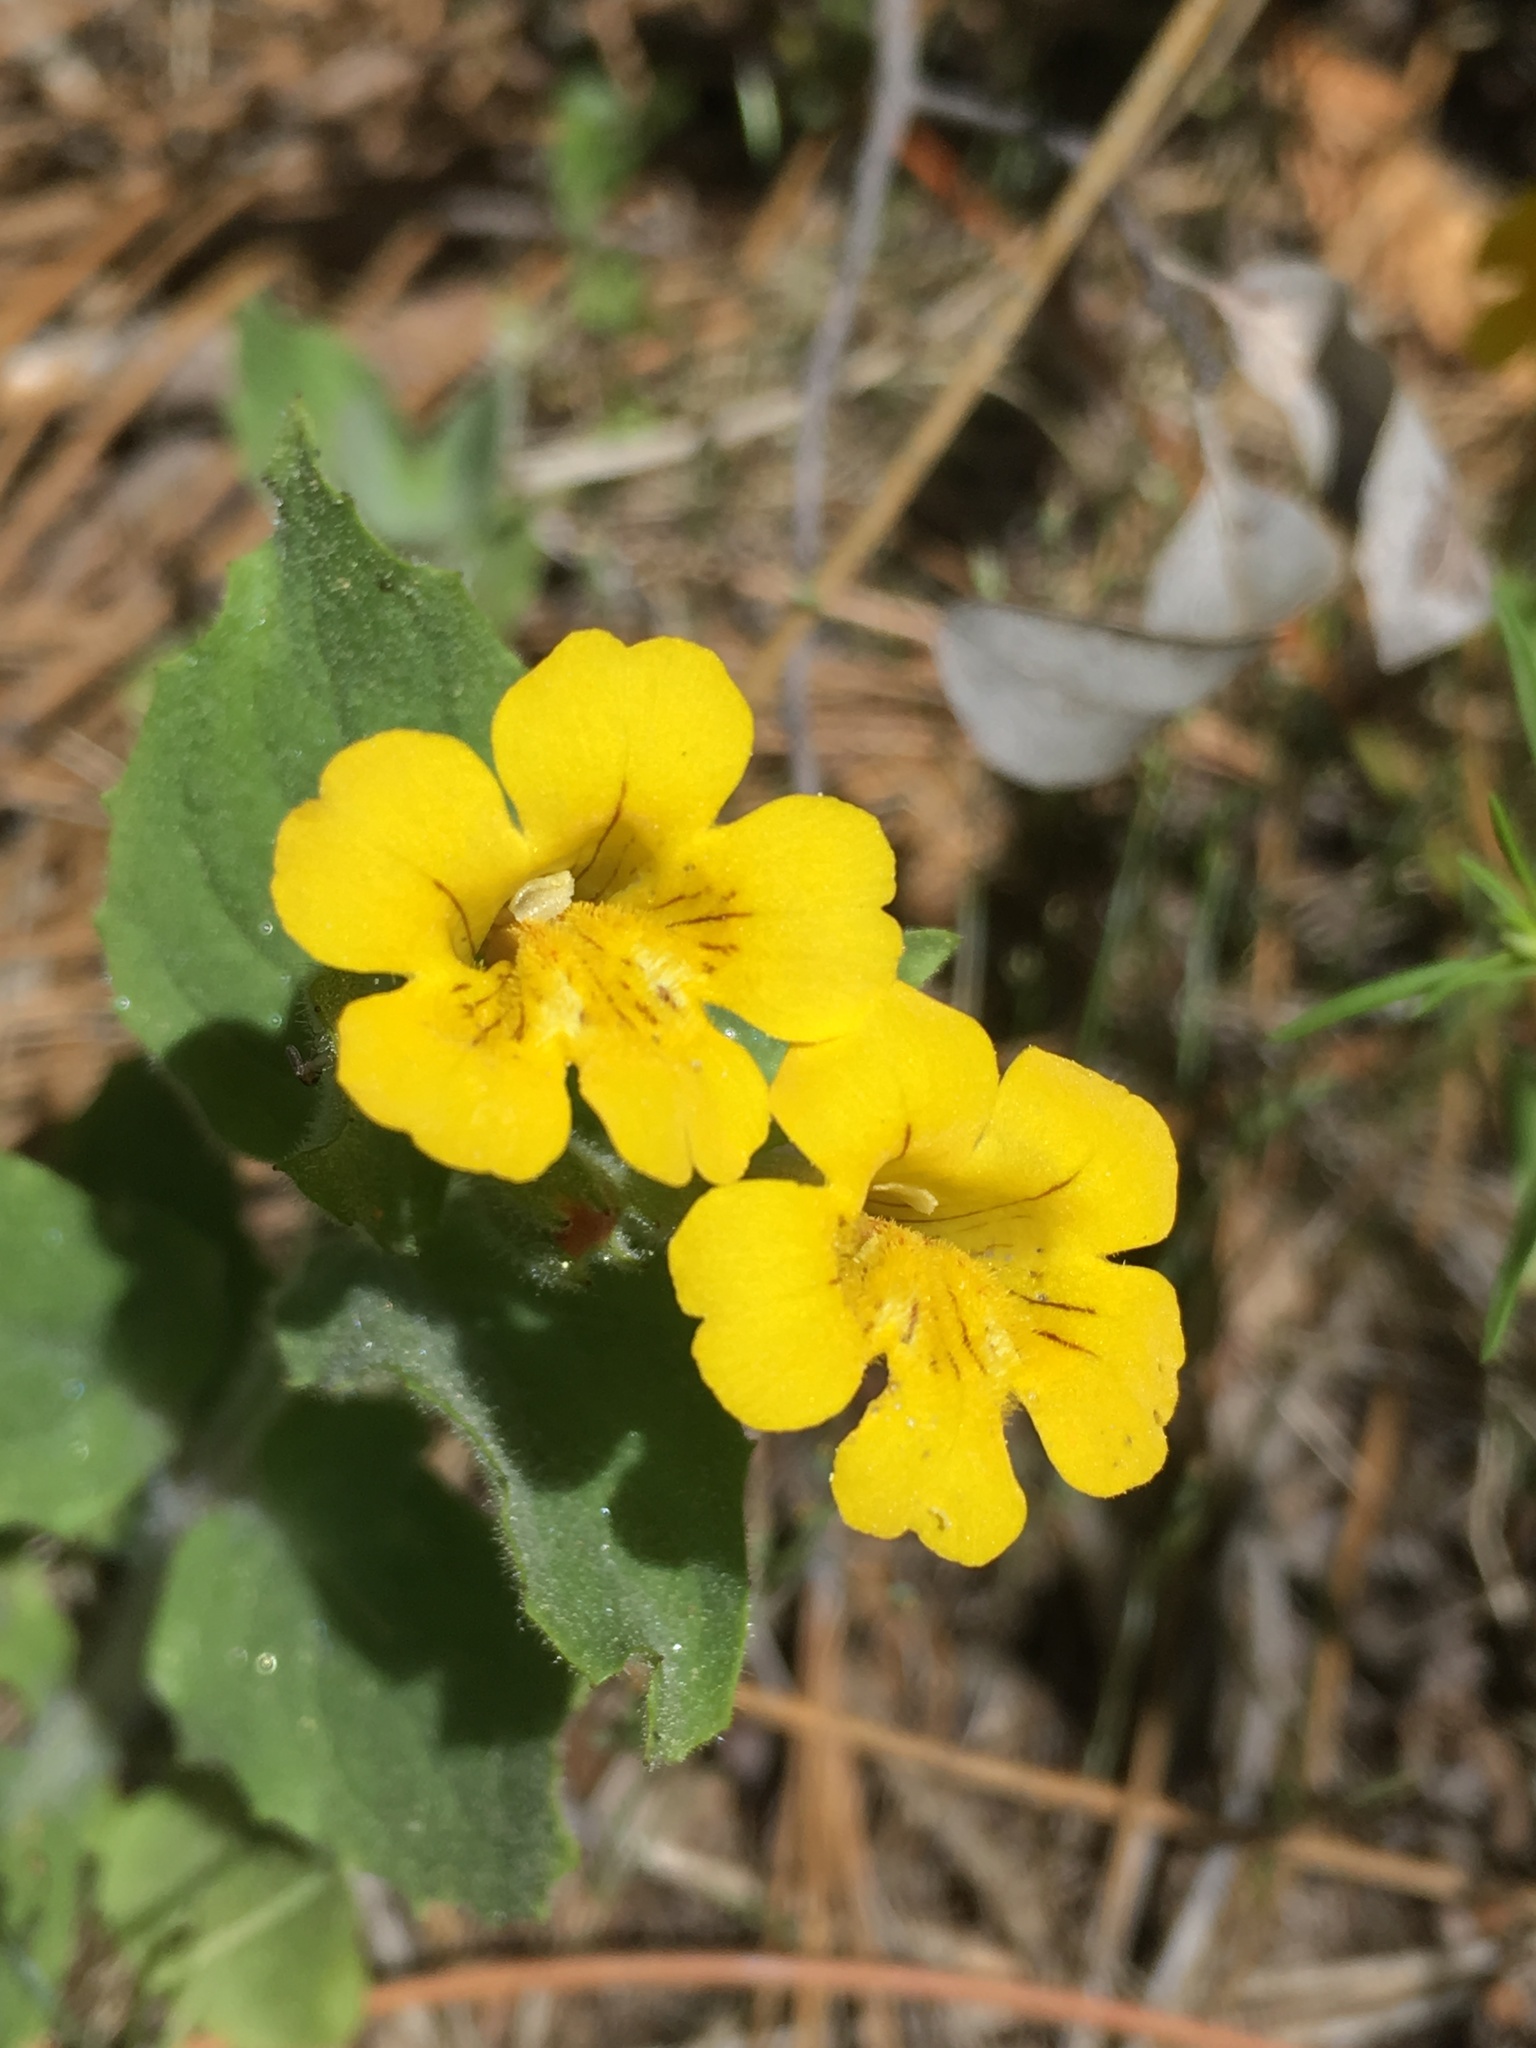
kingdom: Plantae
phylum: Tracheophyta
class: Magnoliopsida
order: Lamiales
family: Phrymaceae
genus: Erythranthe
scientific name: Erythranthe moschata
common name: Muskflower
